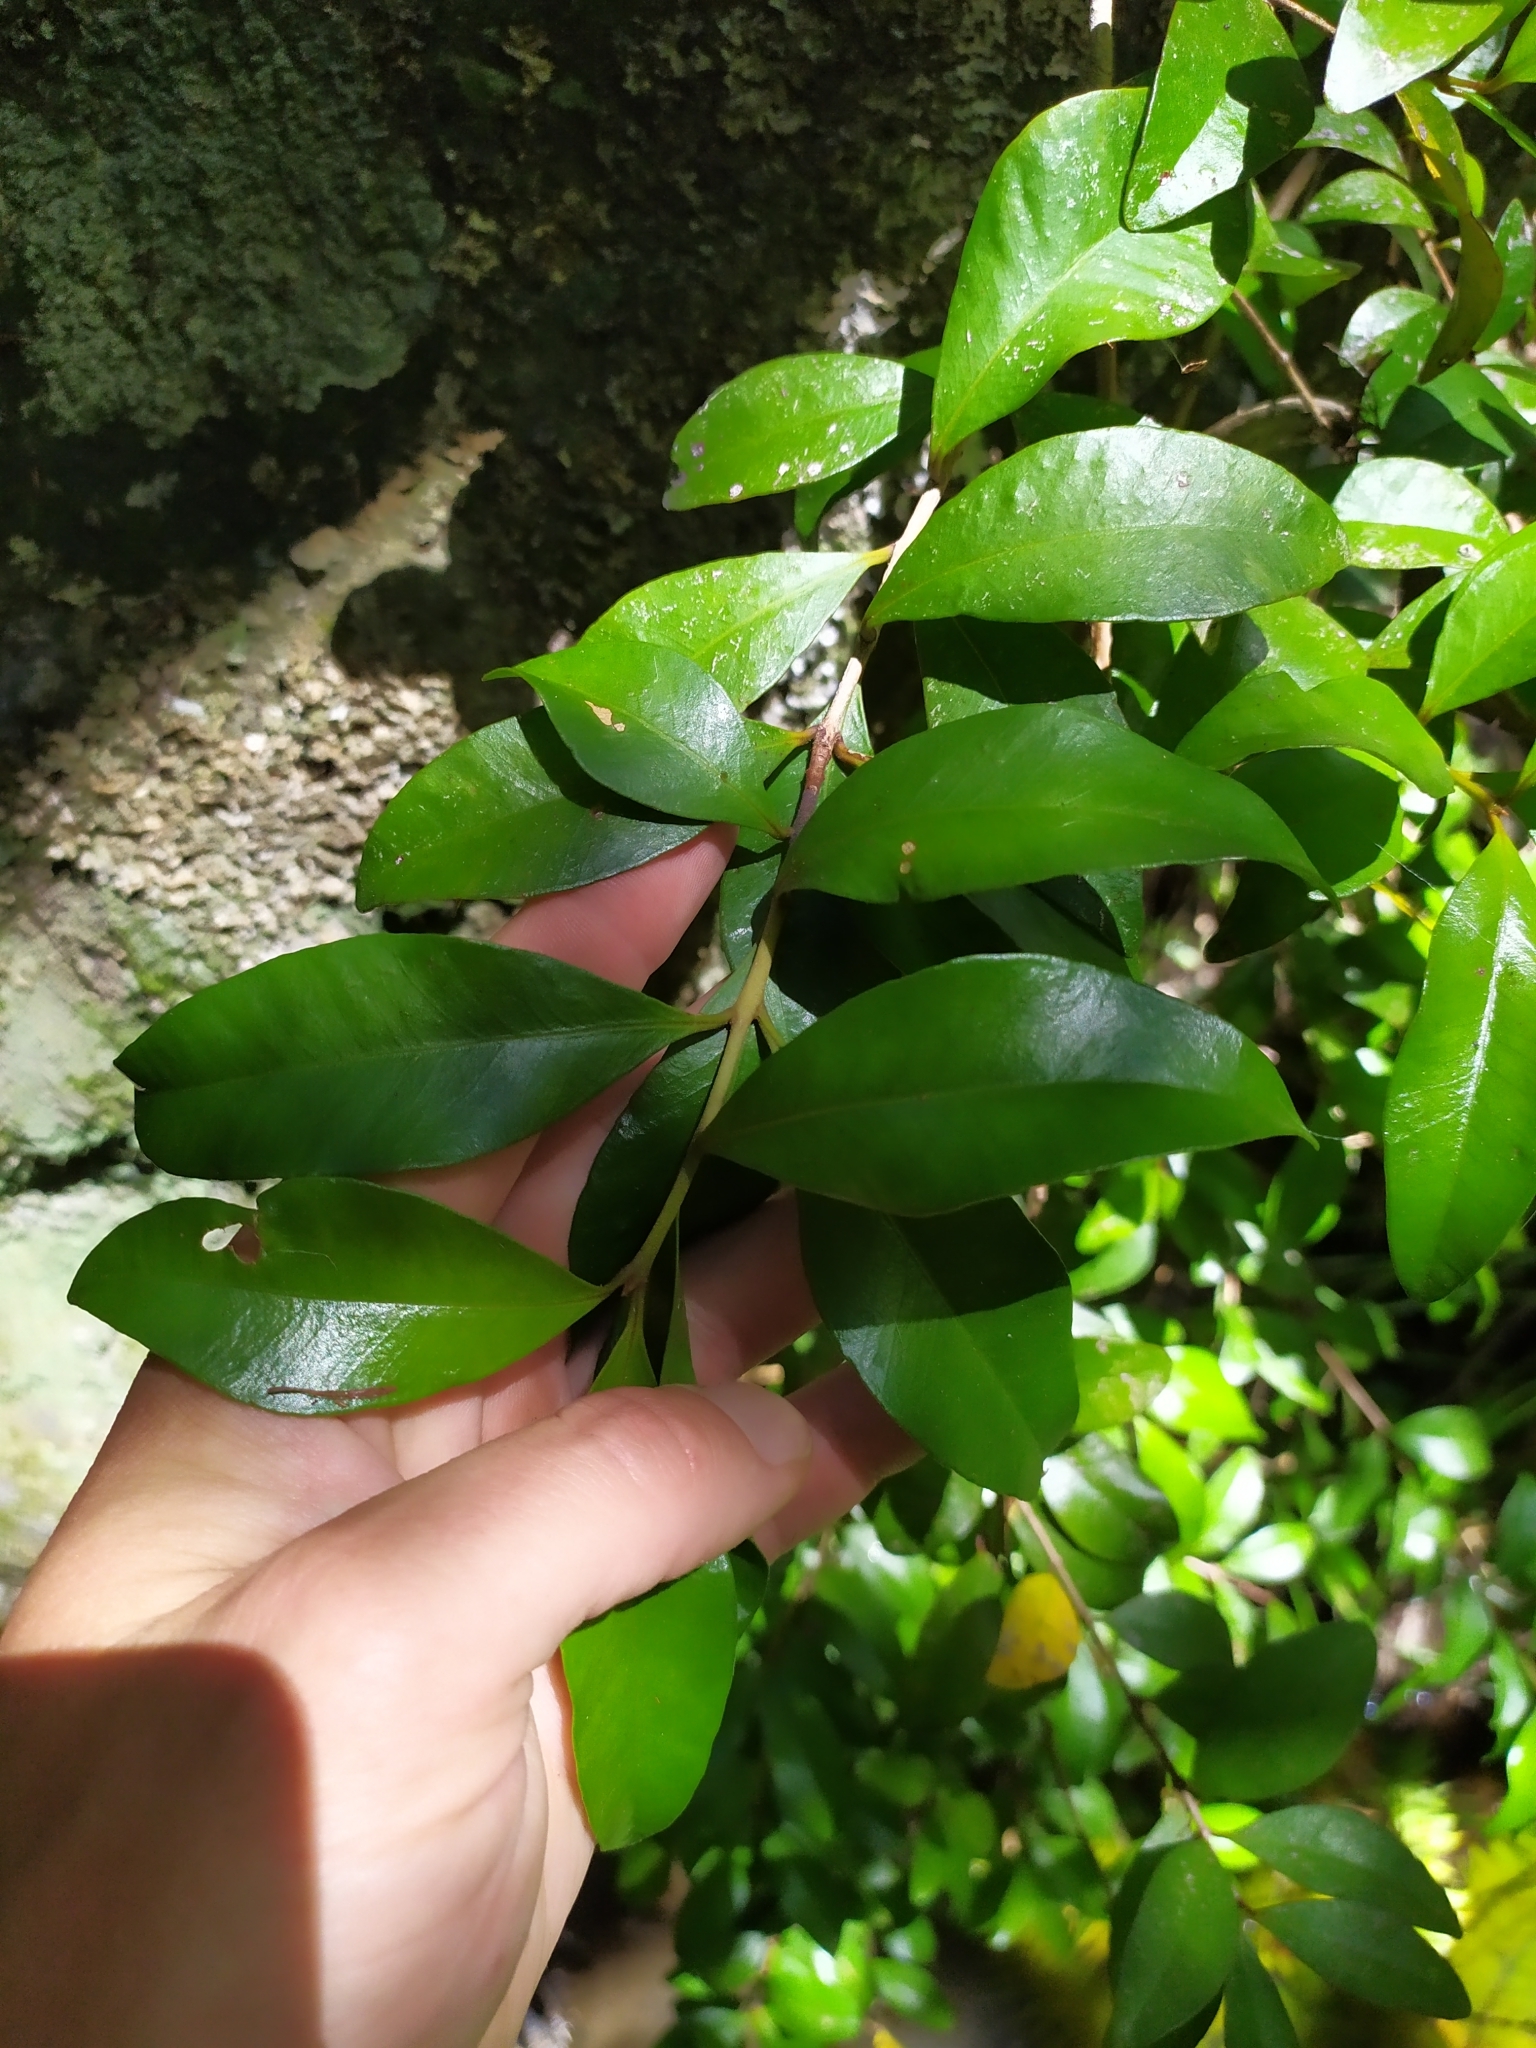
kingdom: Plantae
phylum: Tracheophyta
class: Magnoliopsida
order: Myrtales
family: Myrtaceae
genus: Metrosideros
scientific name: Metrosideros fulgens
